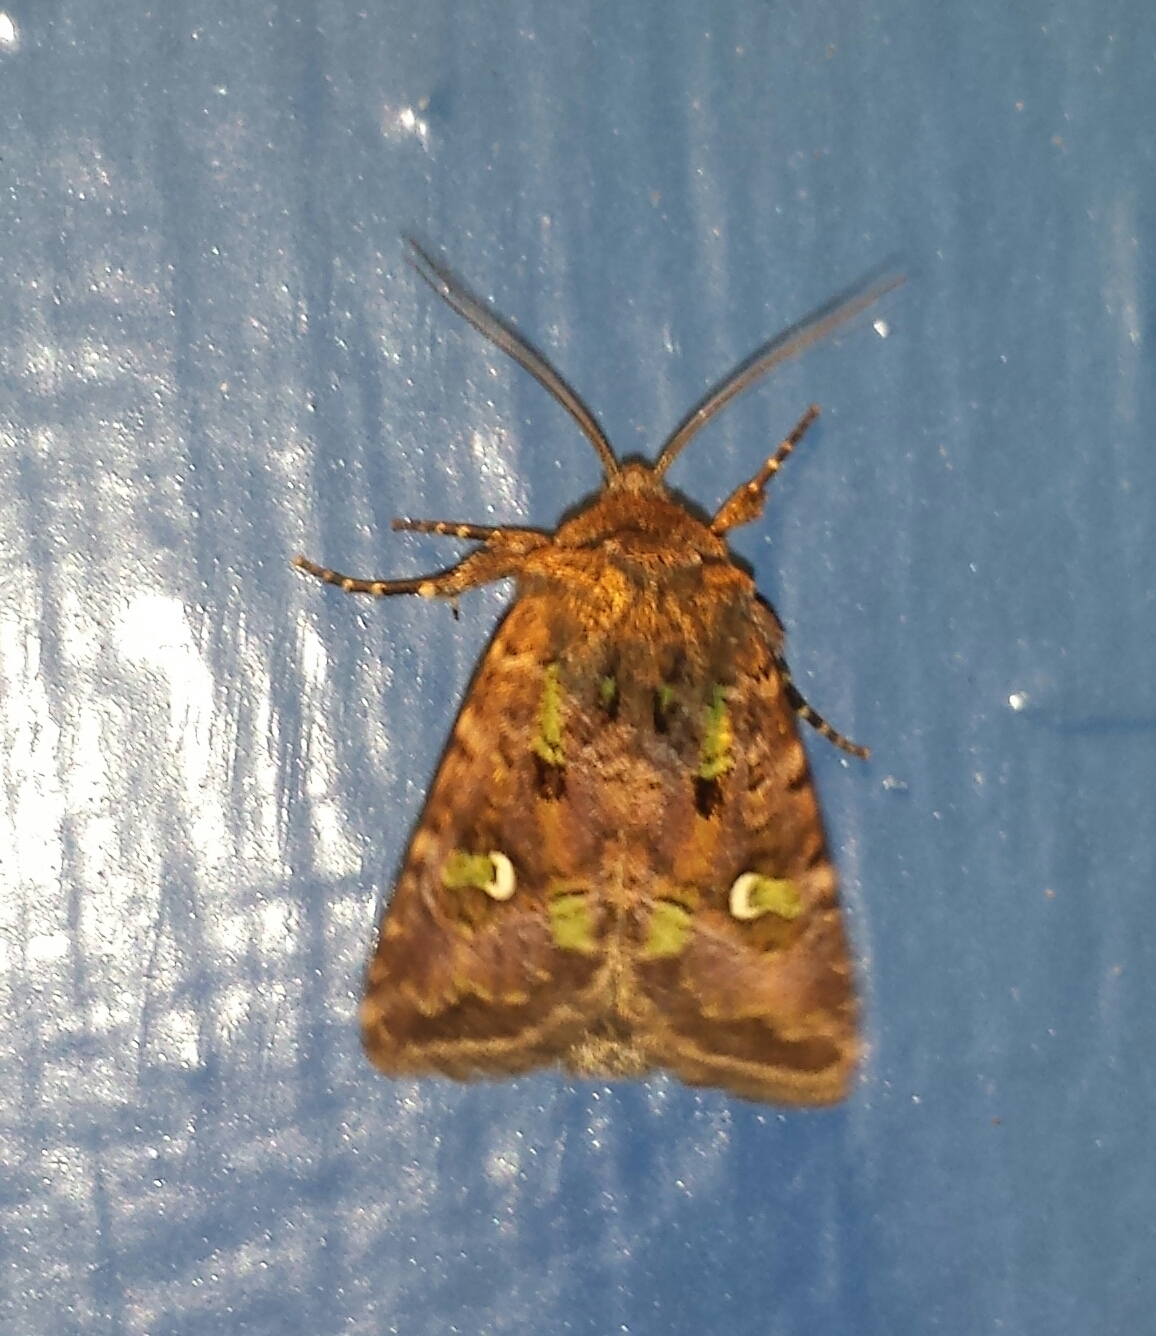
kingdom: Animalia
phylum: Arthropoda
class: Insecta
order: Lepidoptera
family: Noctuidae
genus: Lacinipolia
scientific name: Lacinipolia renigera
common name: Kidney-spotted minor
